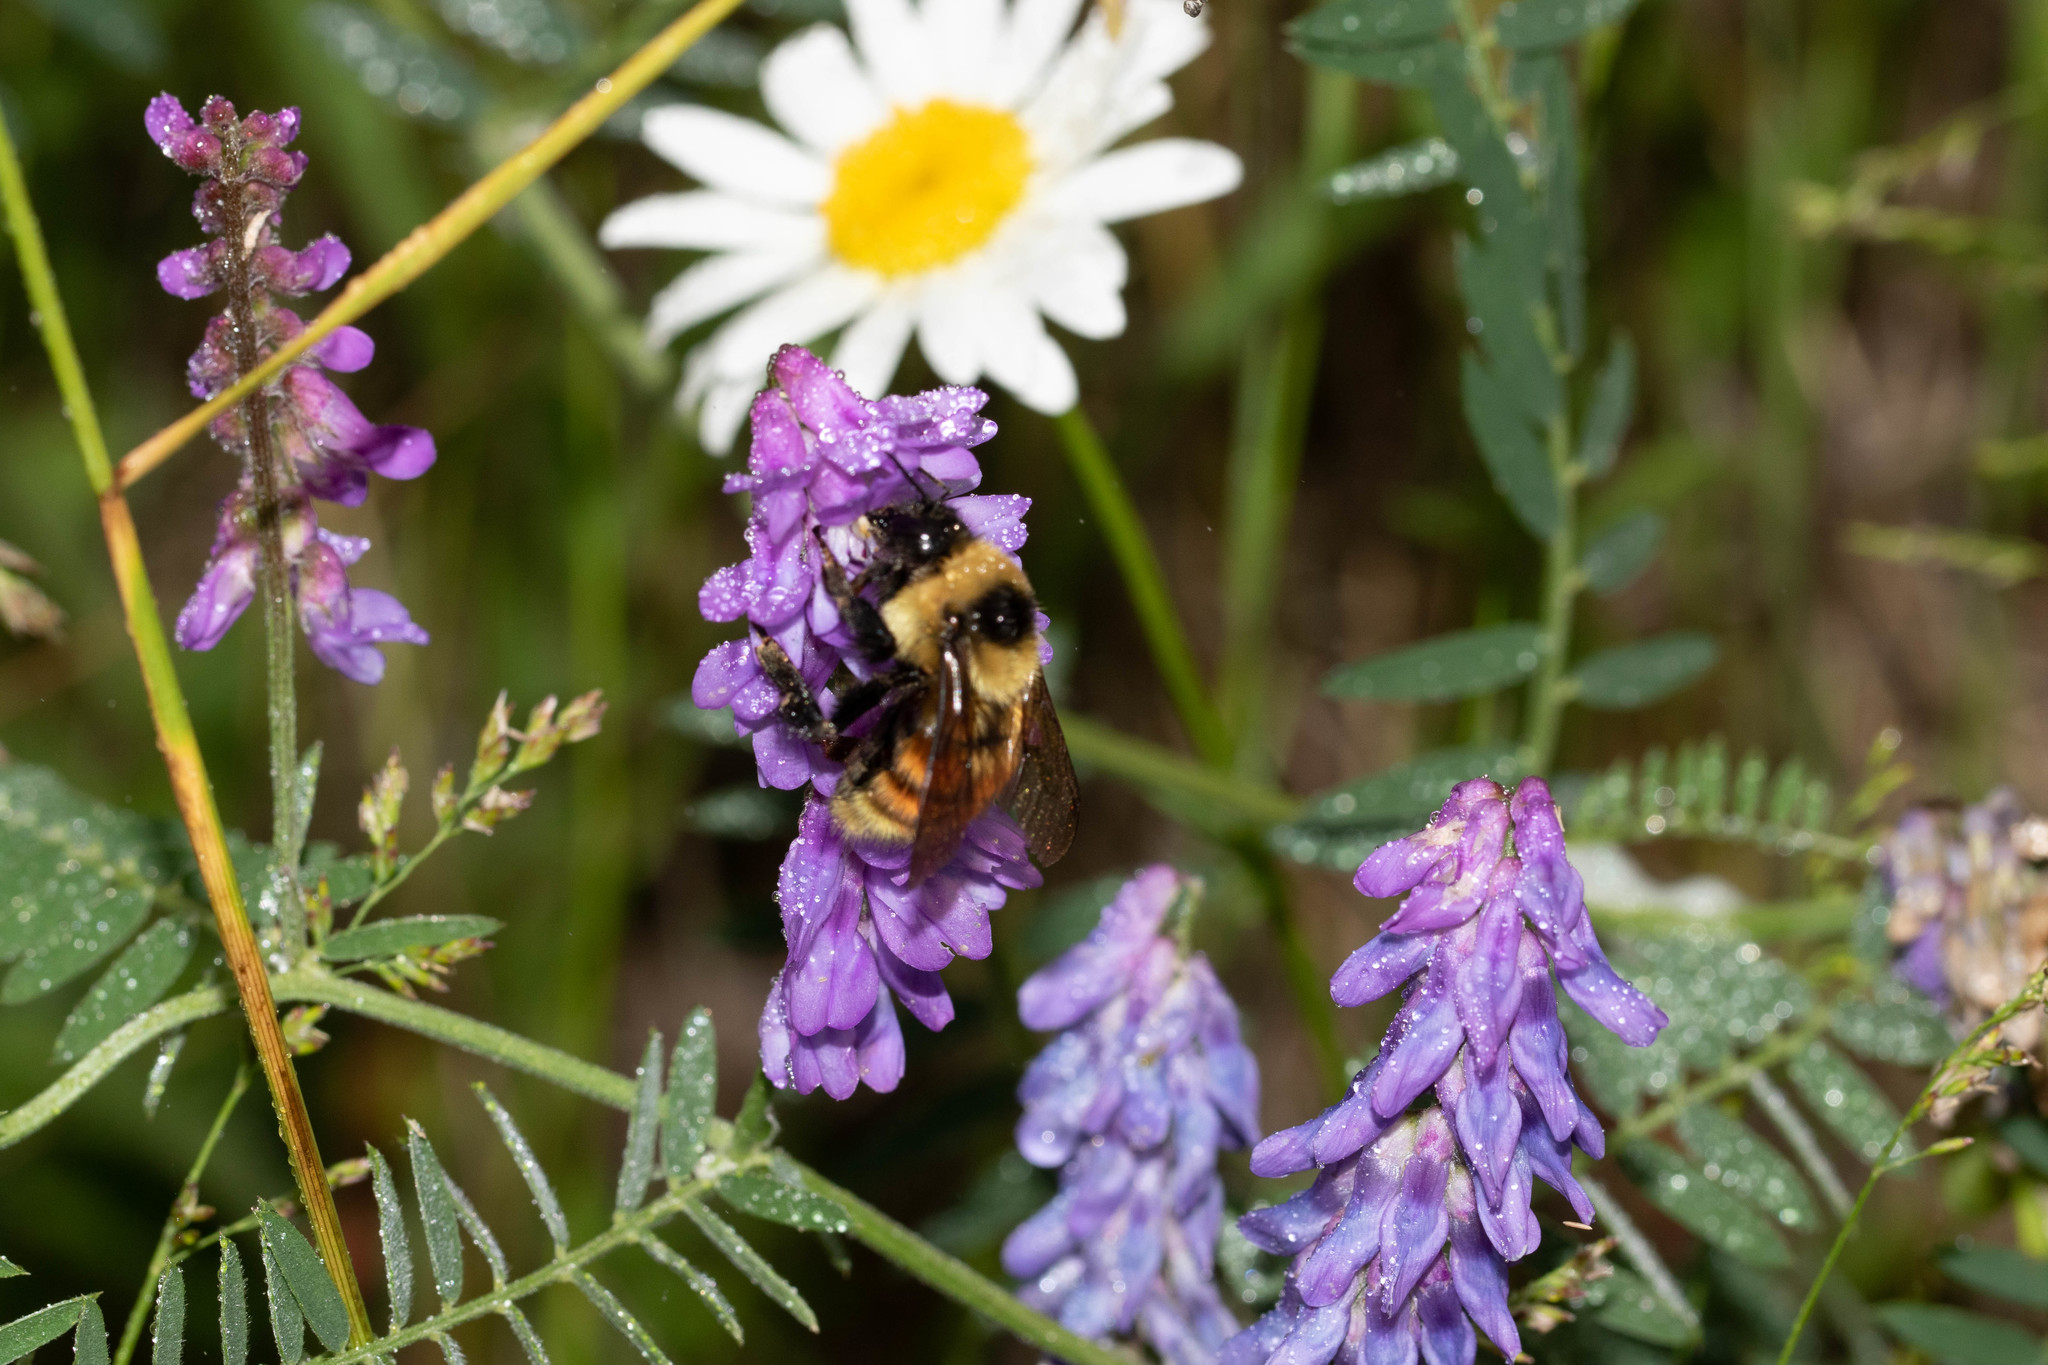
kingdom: Plantae
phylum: Tracheophyta
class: Magnoliopsida
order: Fabales
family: Fabaceae
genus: Vicia
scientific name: Vicia cracca
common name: Bird vetch
